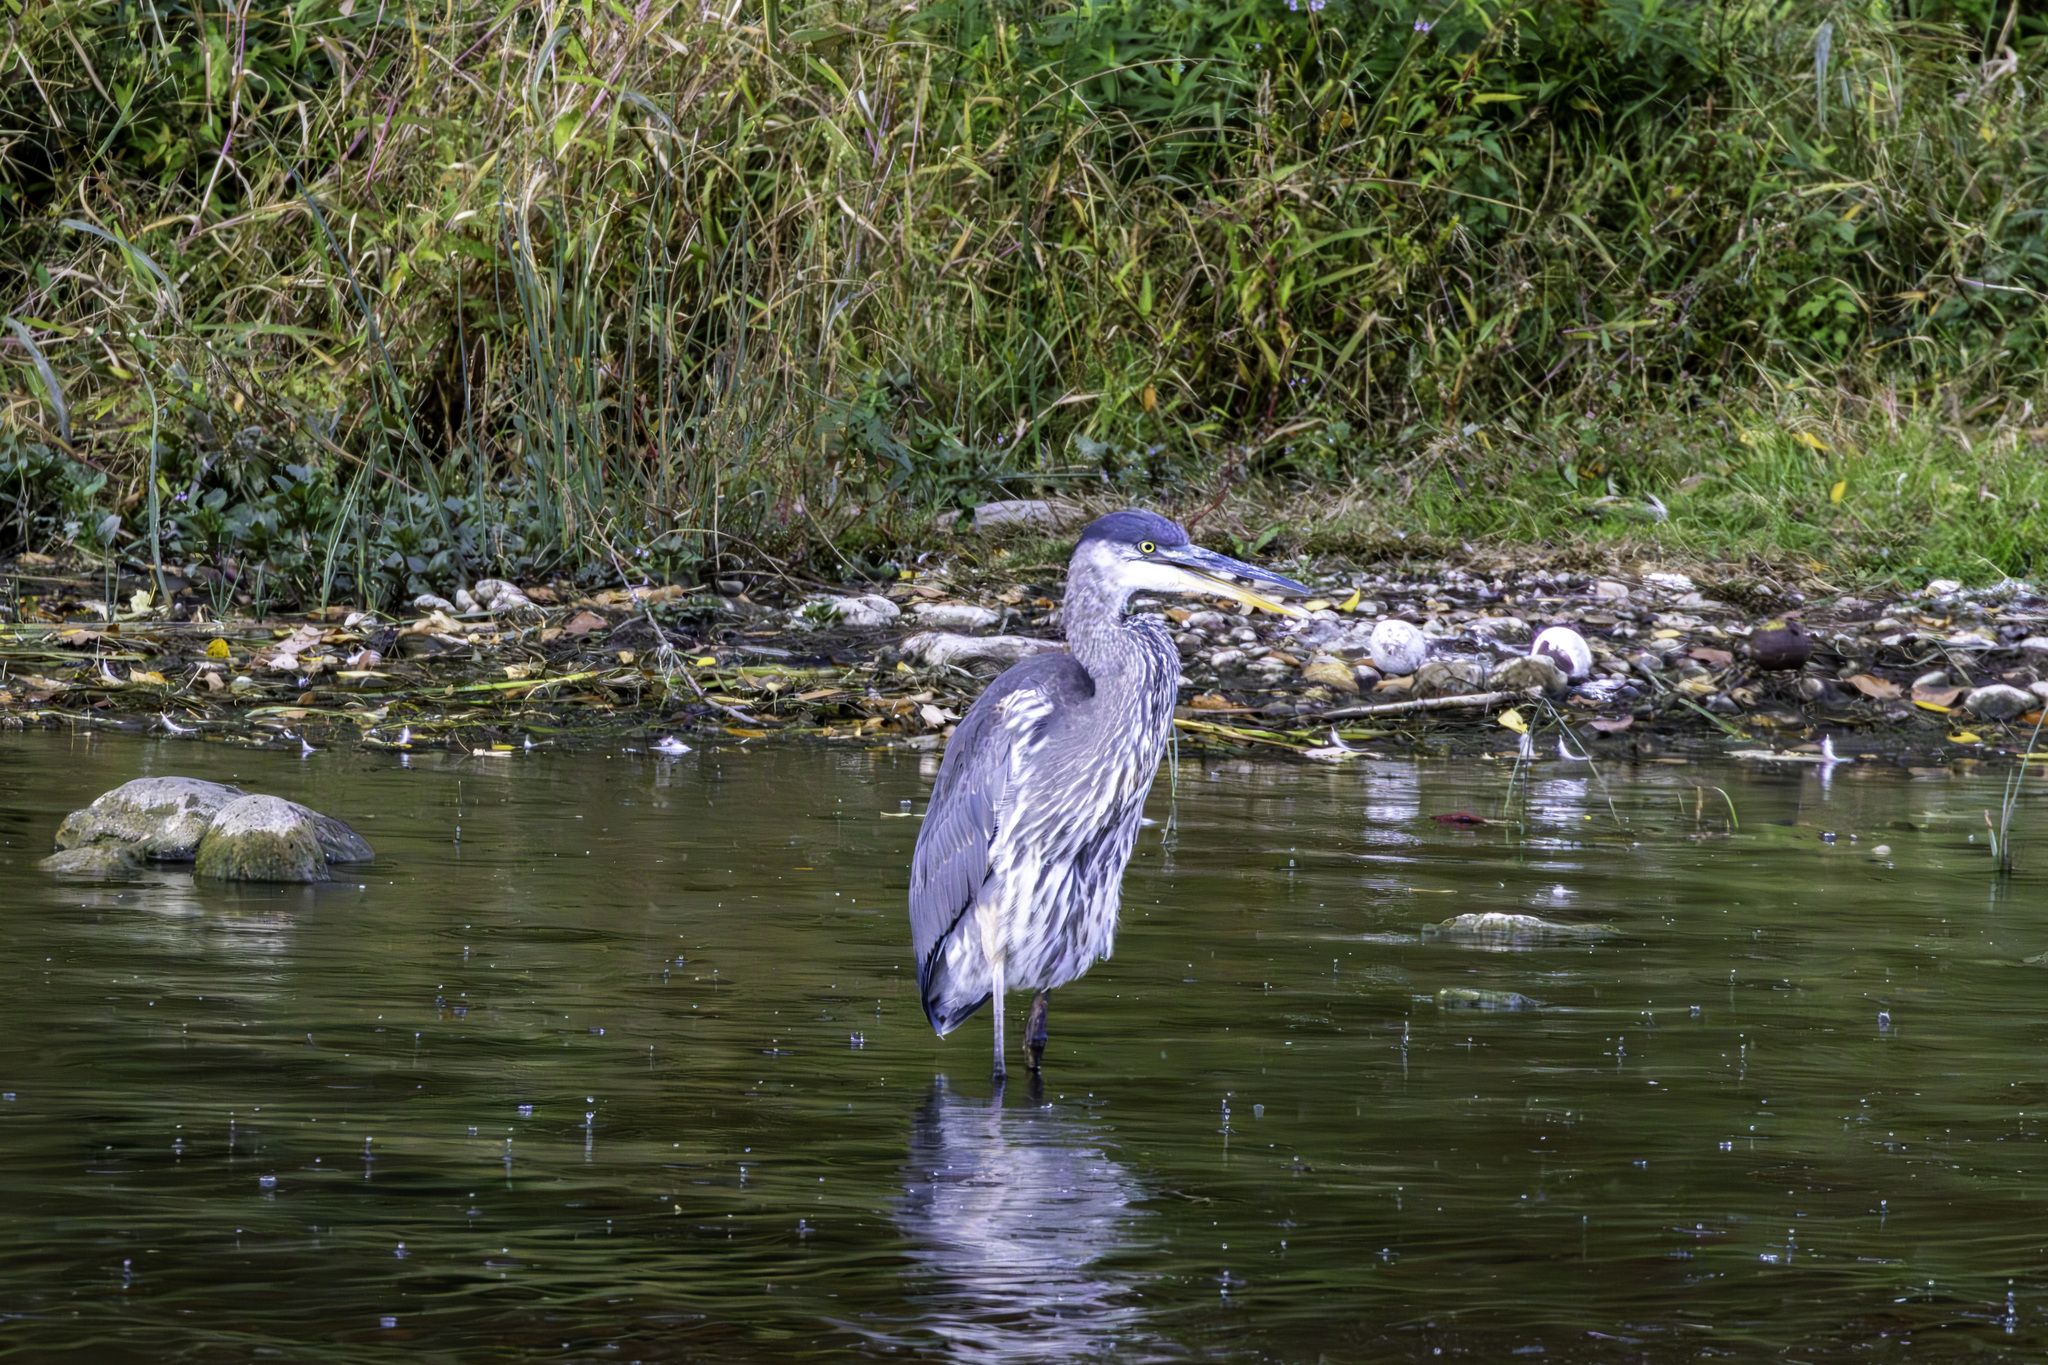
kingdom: Animalia
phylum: Chordata
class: Aves
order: Pelecaniformes
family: Ardeidae
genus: Ardea
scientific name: Ardea herodias
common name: Great blue heron
